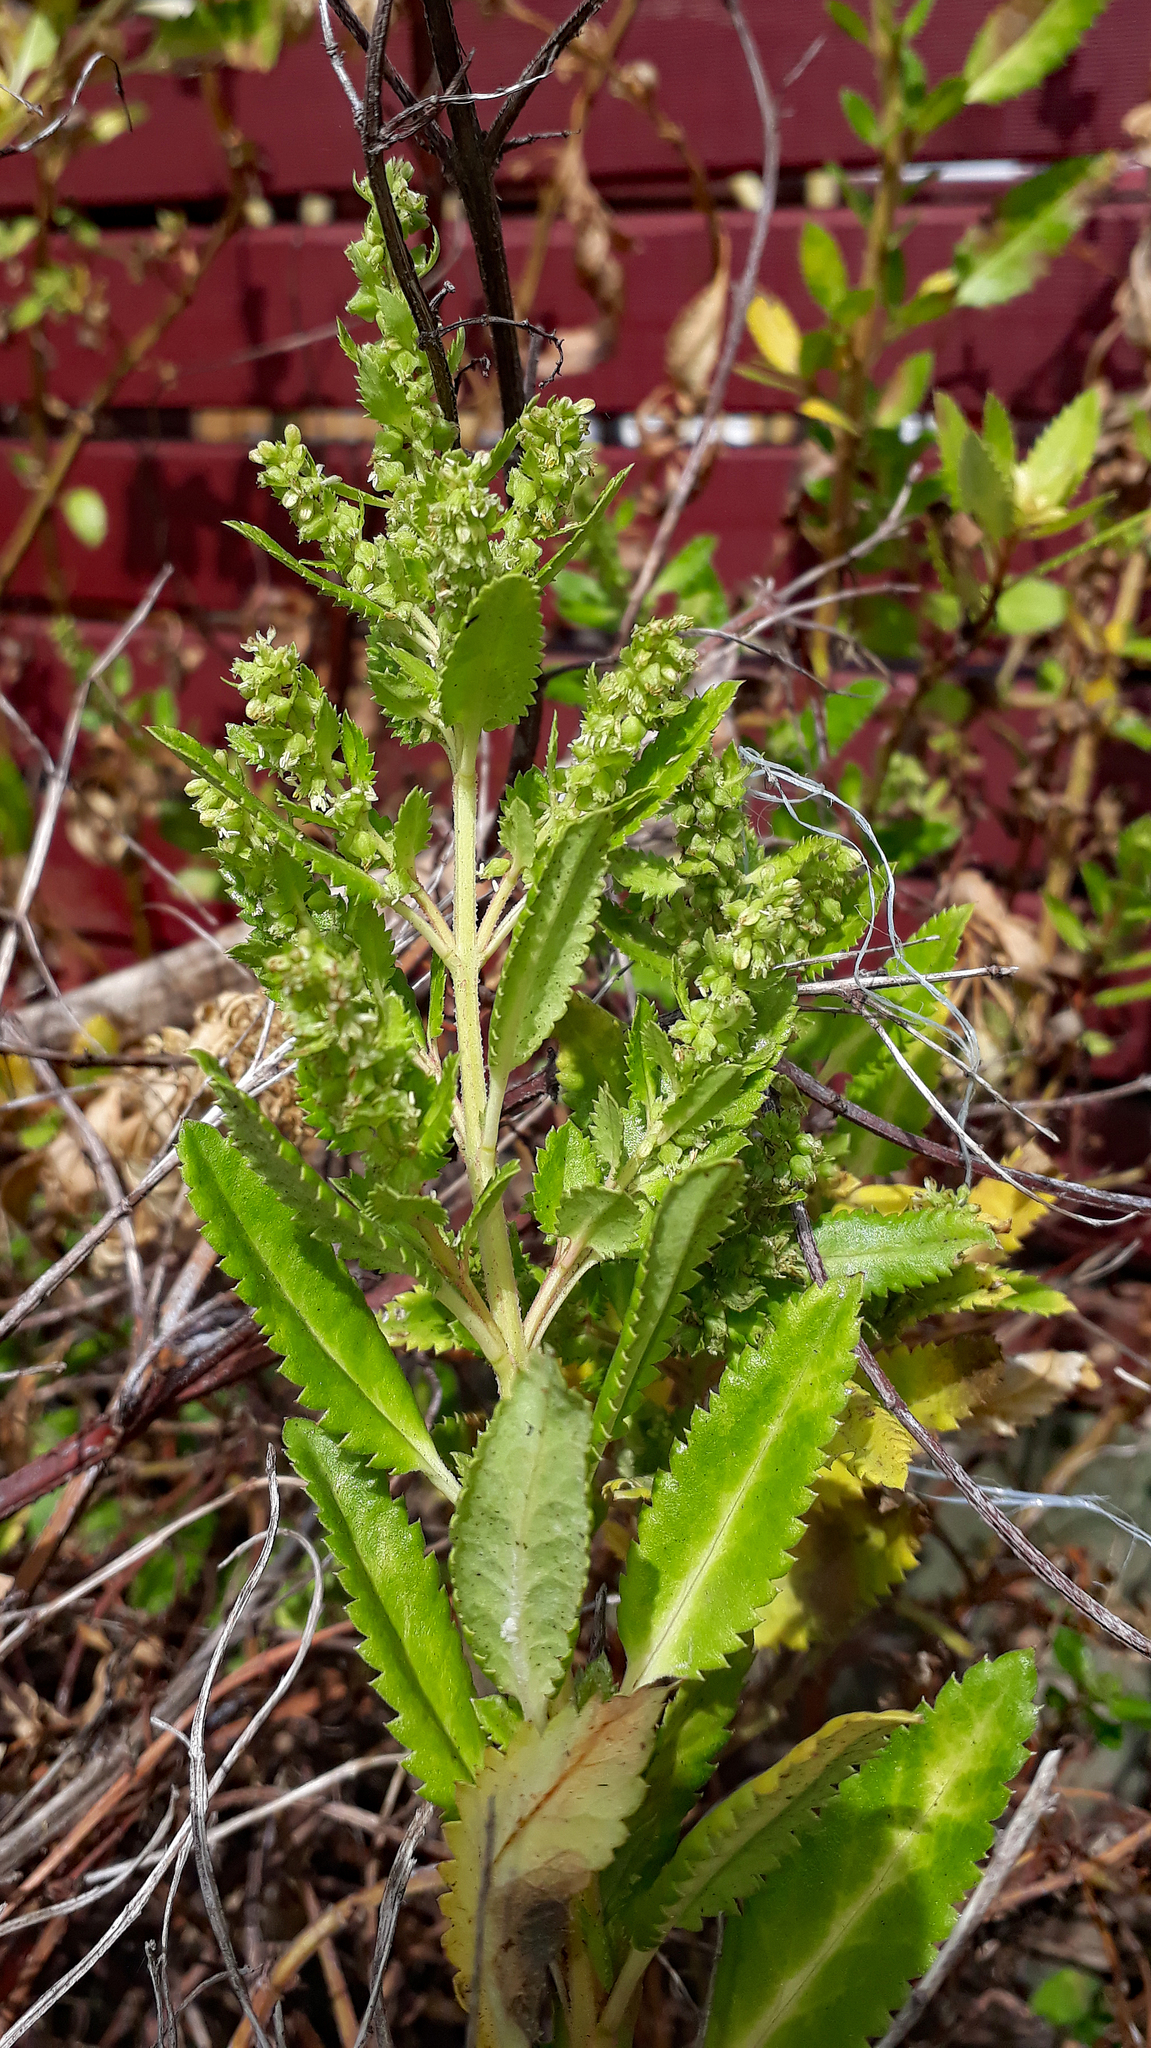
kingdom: Plantae
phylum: Tracheophyta
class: Magnoliopsida
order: Saxifragales
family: Haloragaceae
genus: Haloragis
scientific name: Haloragis erecta
